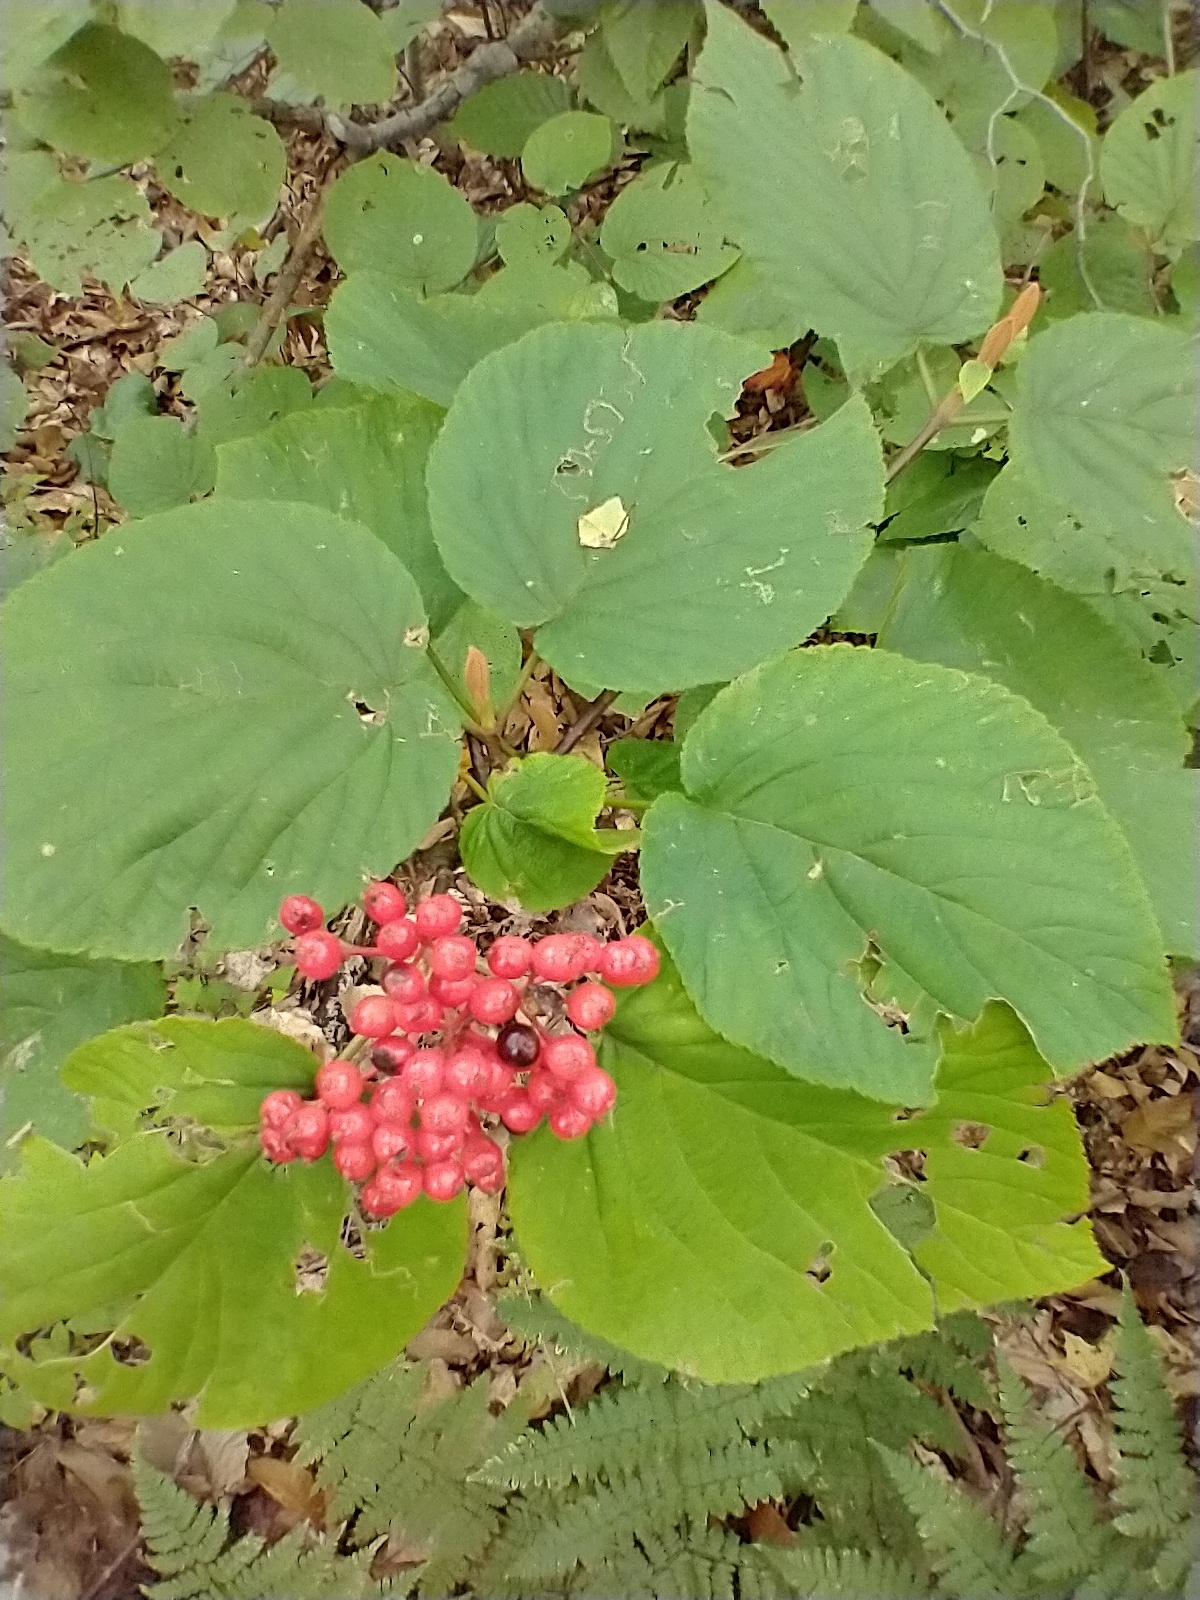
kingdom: Plantae
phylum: Tracheophyta
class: Magnoliopsida
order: Dipsacales
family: Viburnaceae
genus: Viburnum
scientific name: Viburnum lantanoides
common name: Hobblebush
